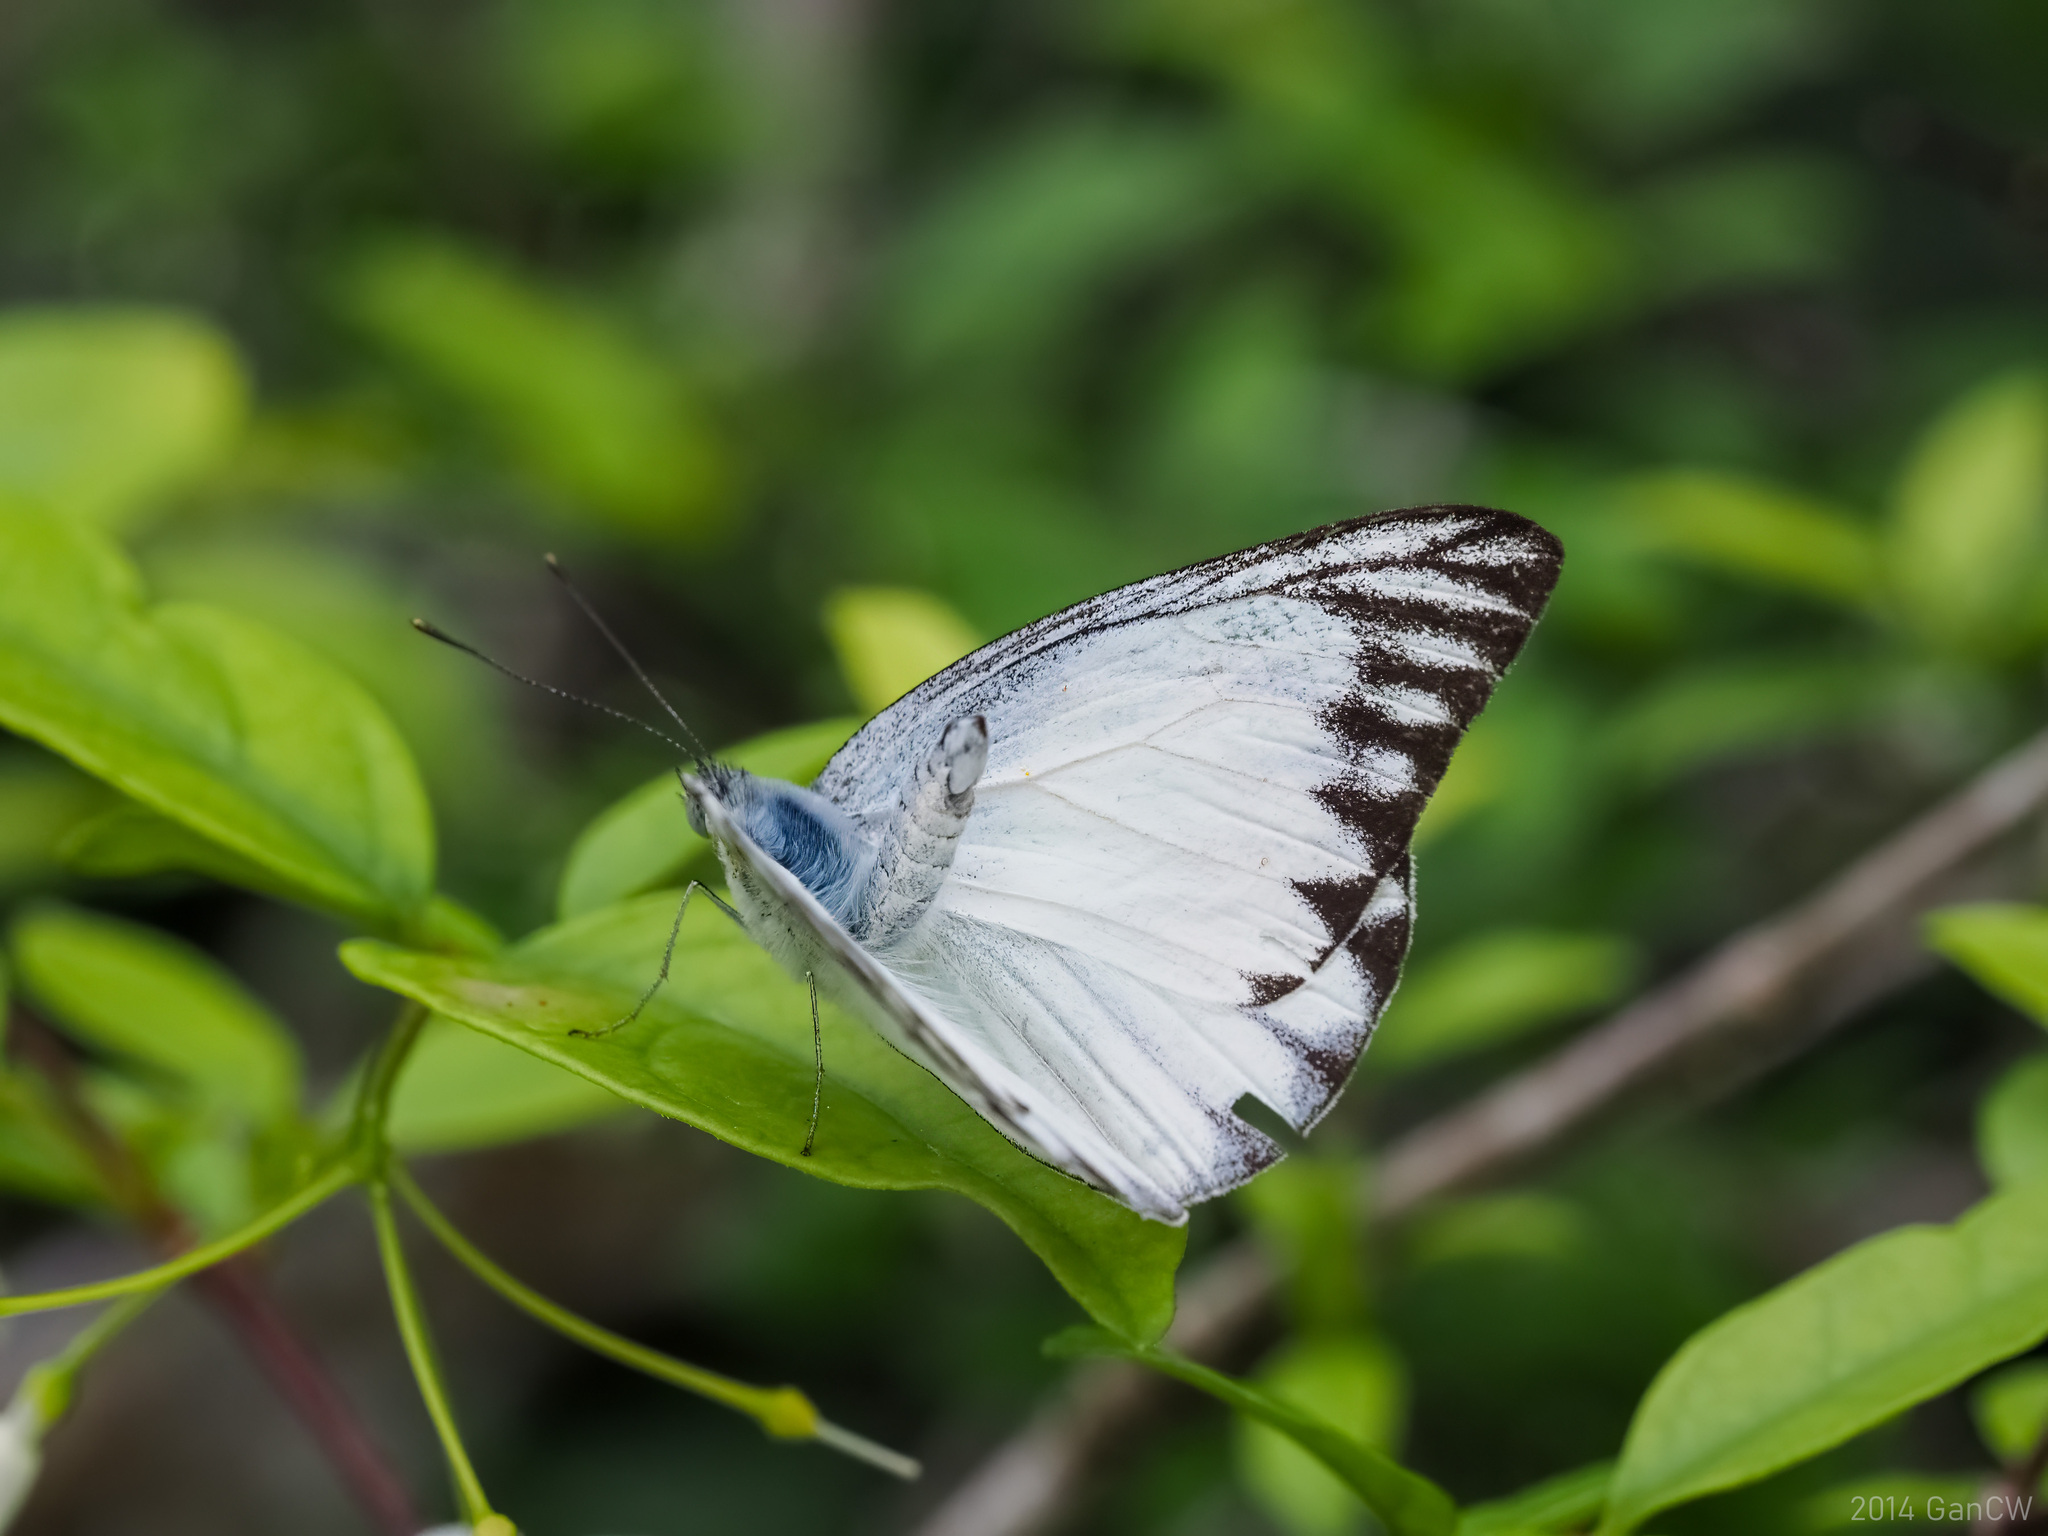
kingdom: Animalia
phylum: Arthropoda
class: Insecta
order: Lepidoptera
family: Pieridae
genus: Appias
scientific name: Appias libythea
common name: Striped albatross
